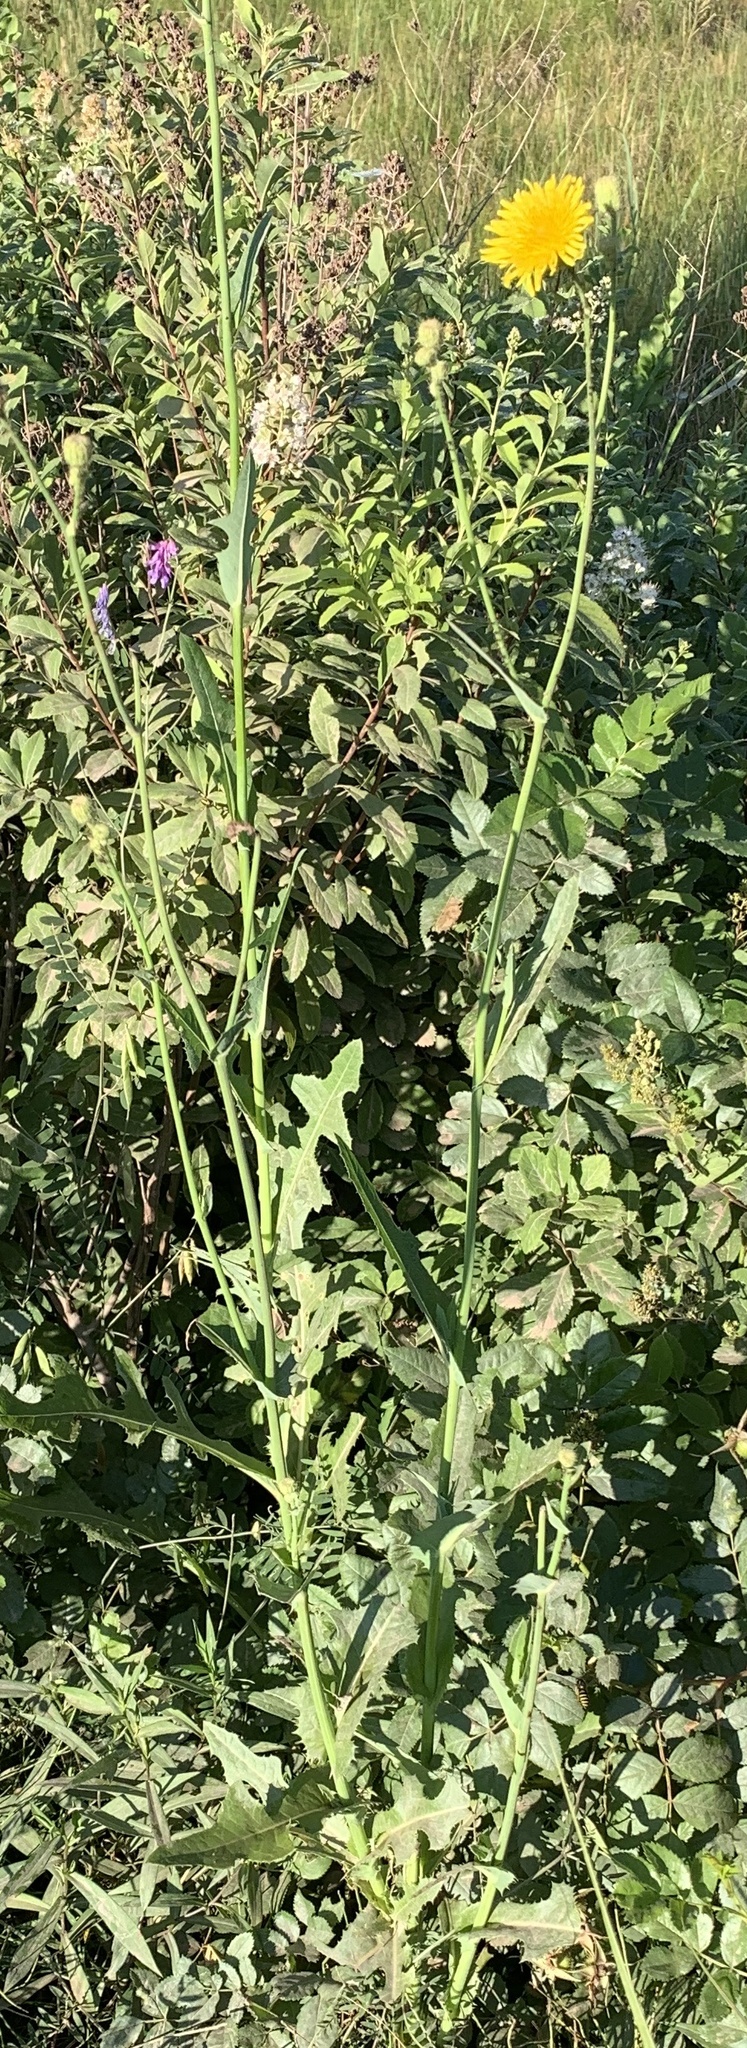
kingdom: Plantae
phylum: Tracheophyta
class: Magnoliopsida
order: Asterales
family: Asteraceae
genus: Sonchus
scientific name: Sonchus arvensis
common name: Perennial sow-thistle
